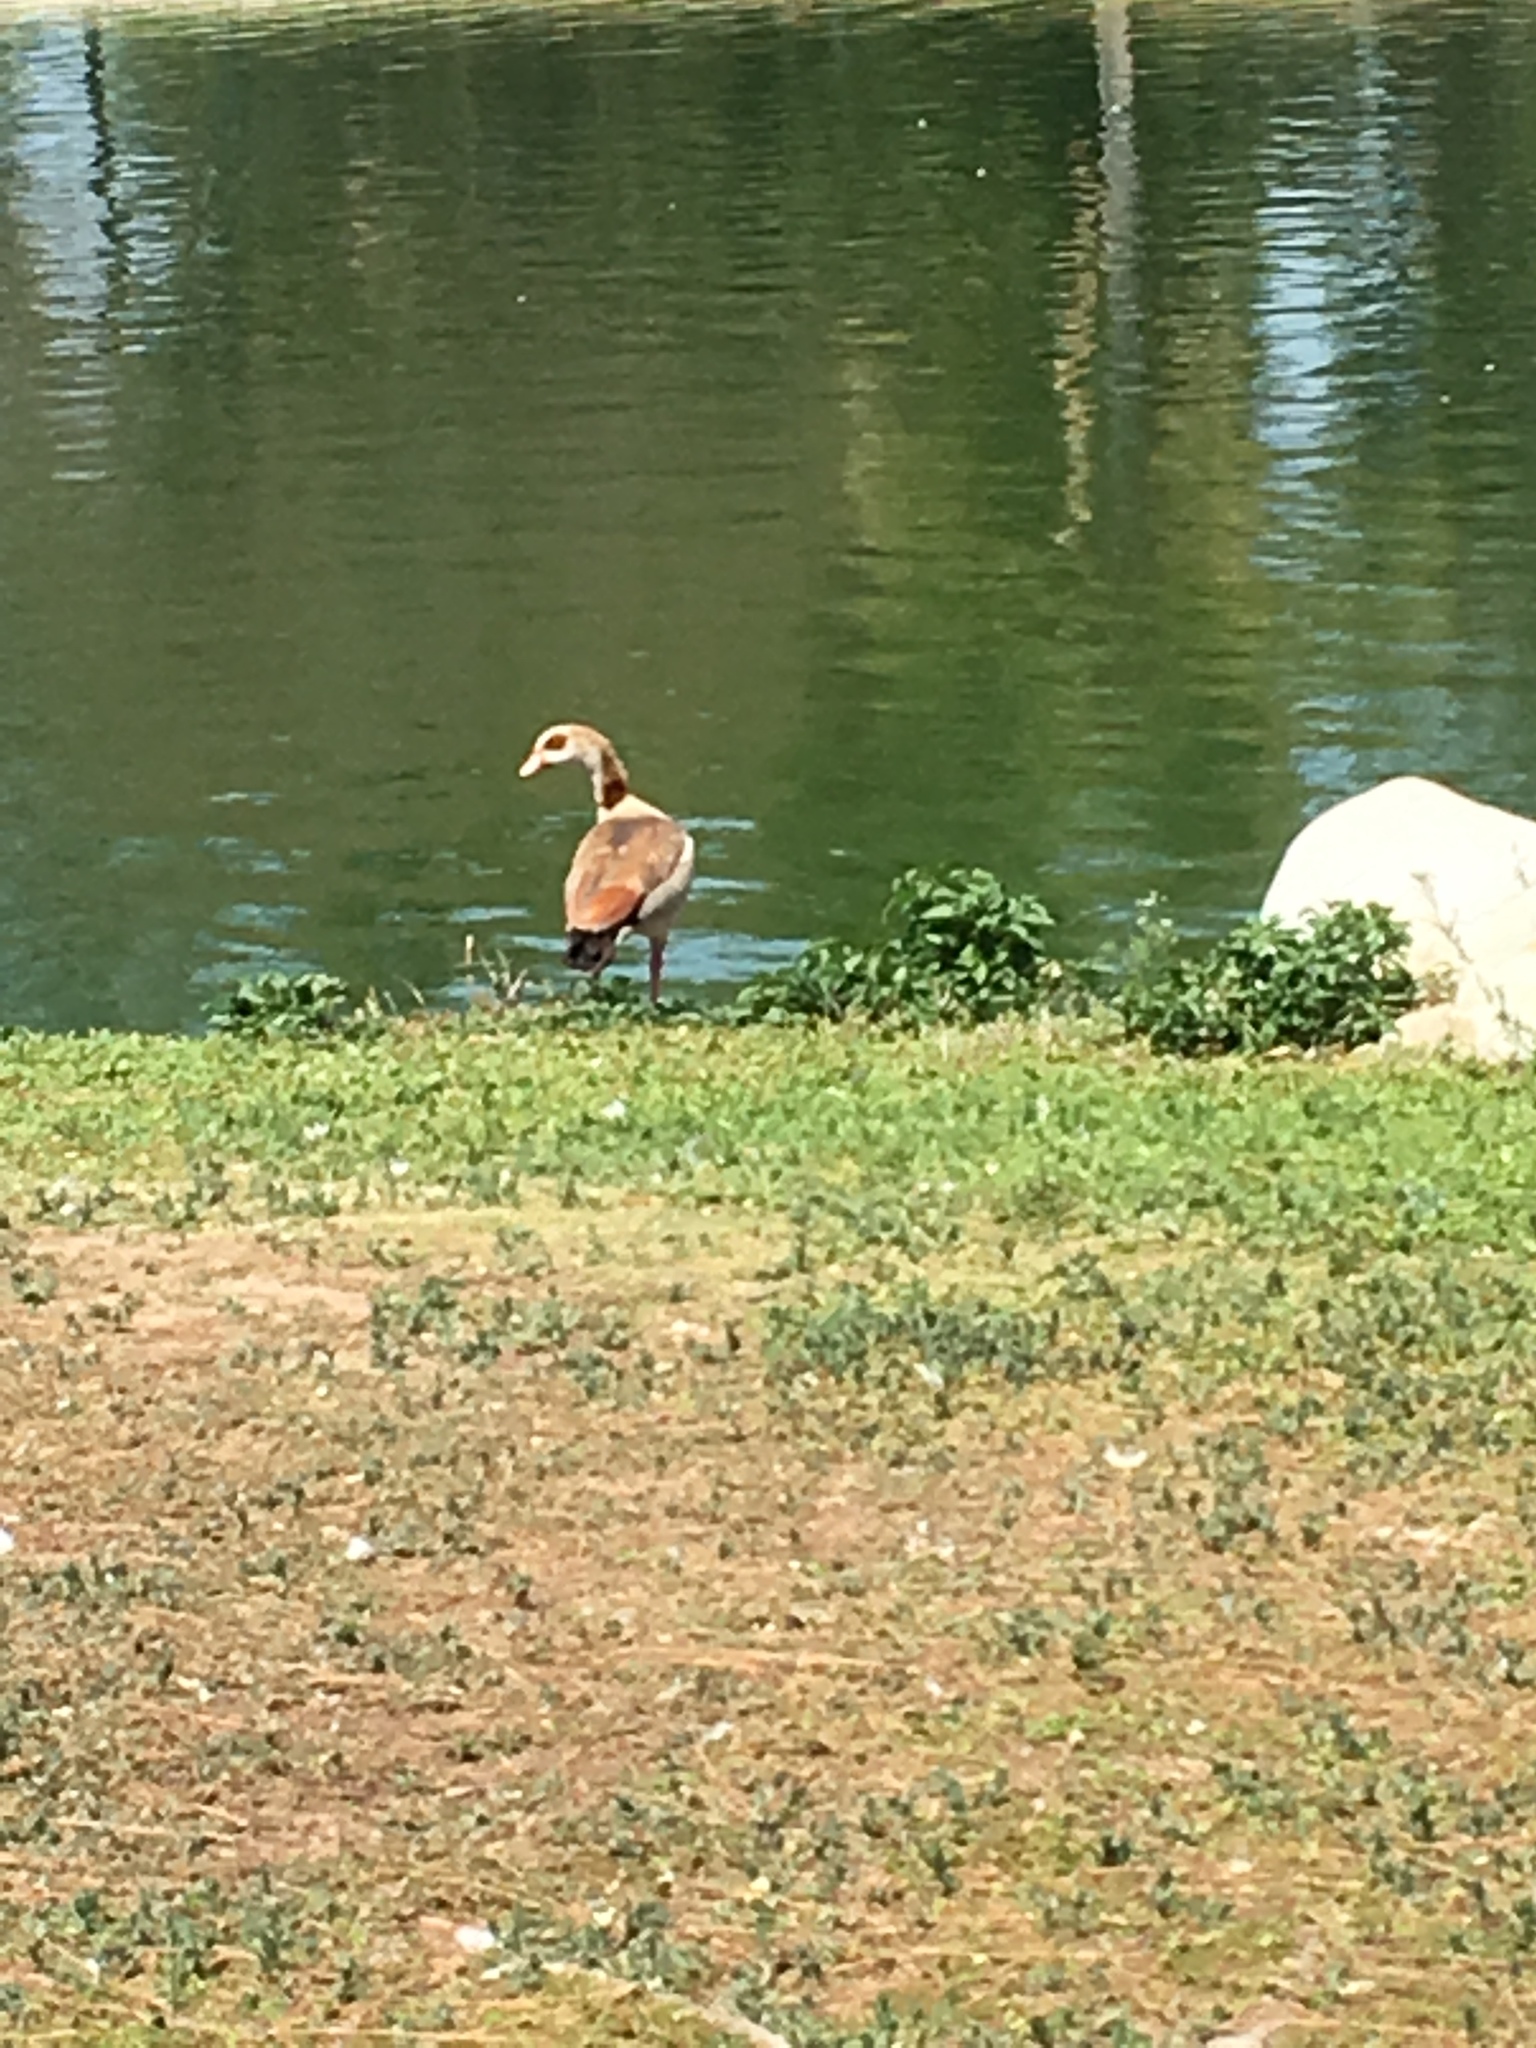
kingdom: Animalia
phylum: Chordata
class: Aves
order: Anseriformes
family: Anatidae
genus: Alopochen
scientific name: Alopochen aegyptiaca
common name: Egyptian goose
